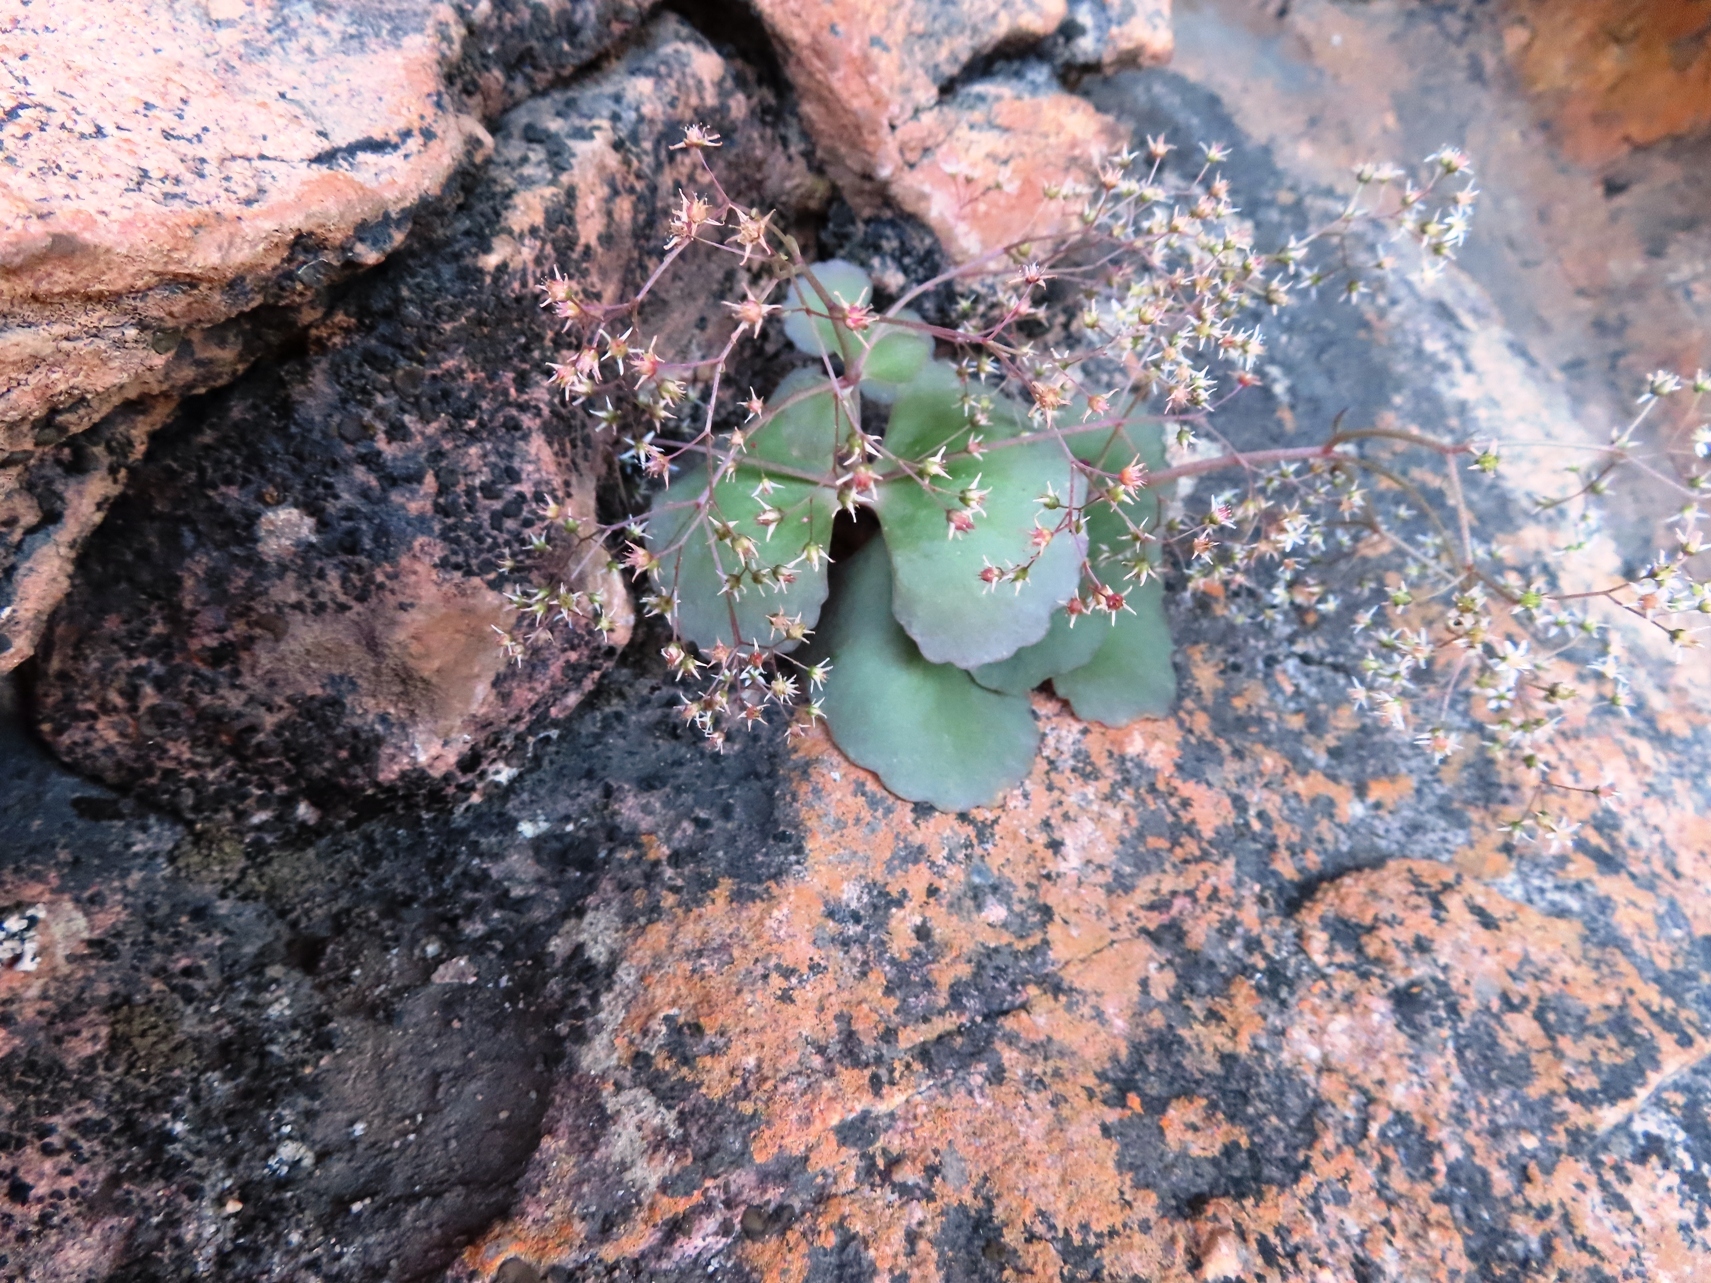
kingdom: Plantae
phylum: Tracheophyta
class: Magnoliopsida
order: Saxifragales
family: Crassulaceae
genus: Crassula
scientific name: Crassula umbella
